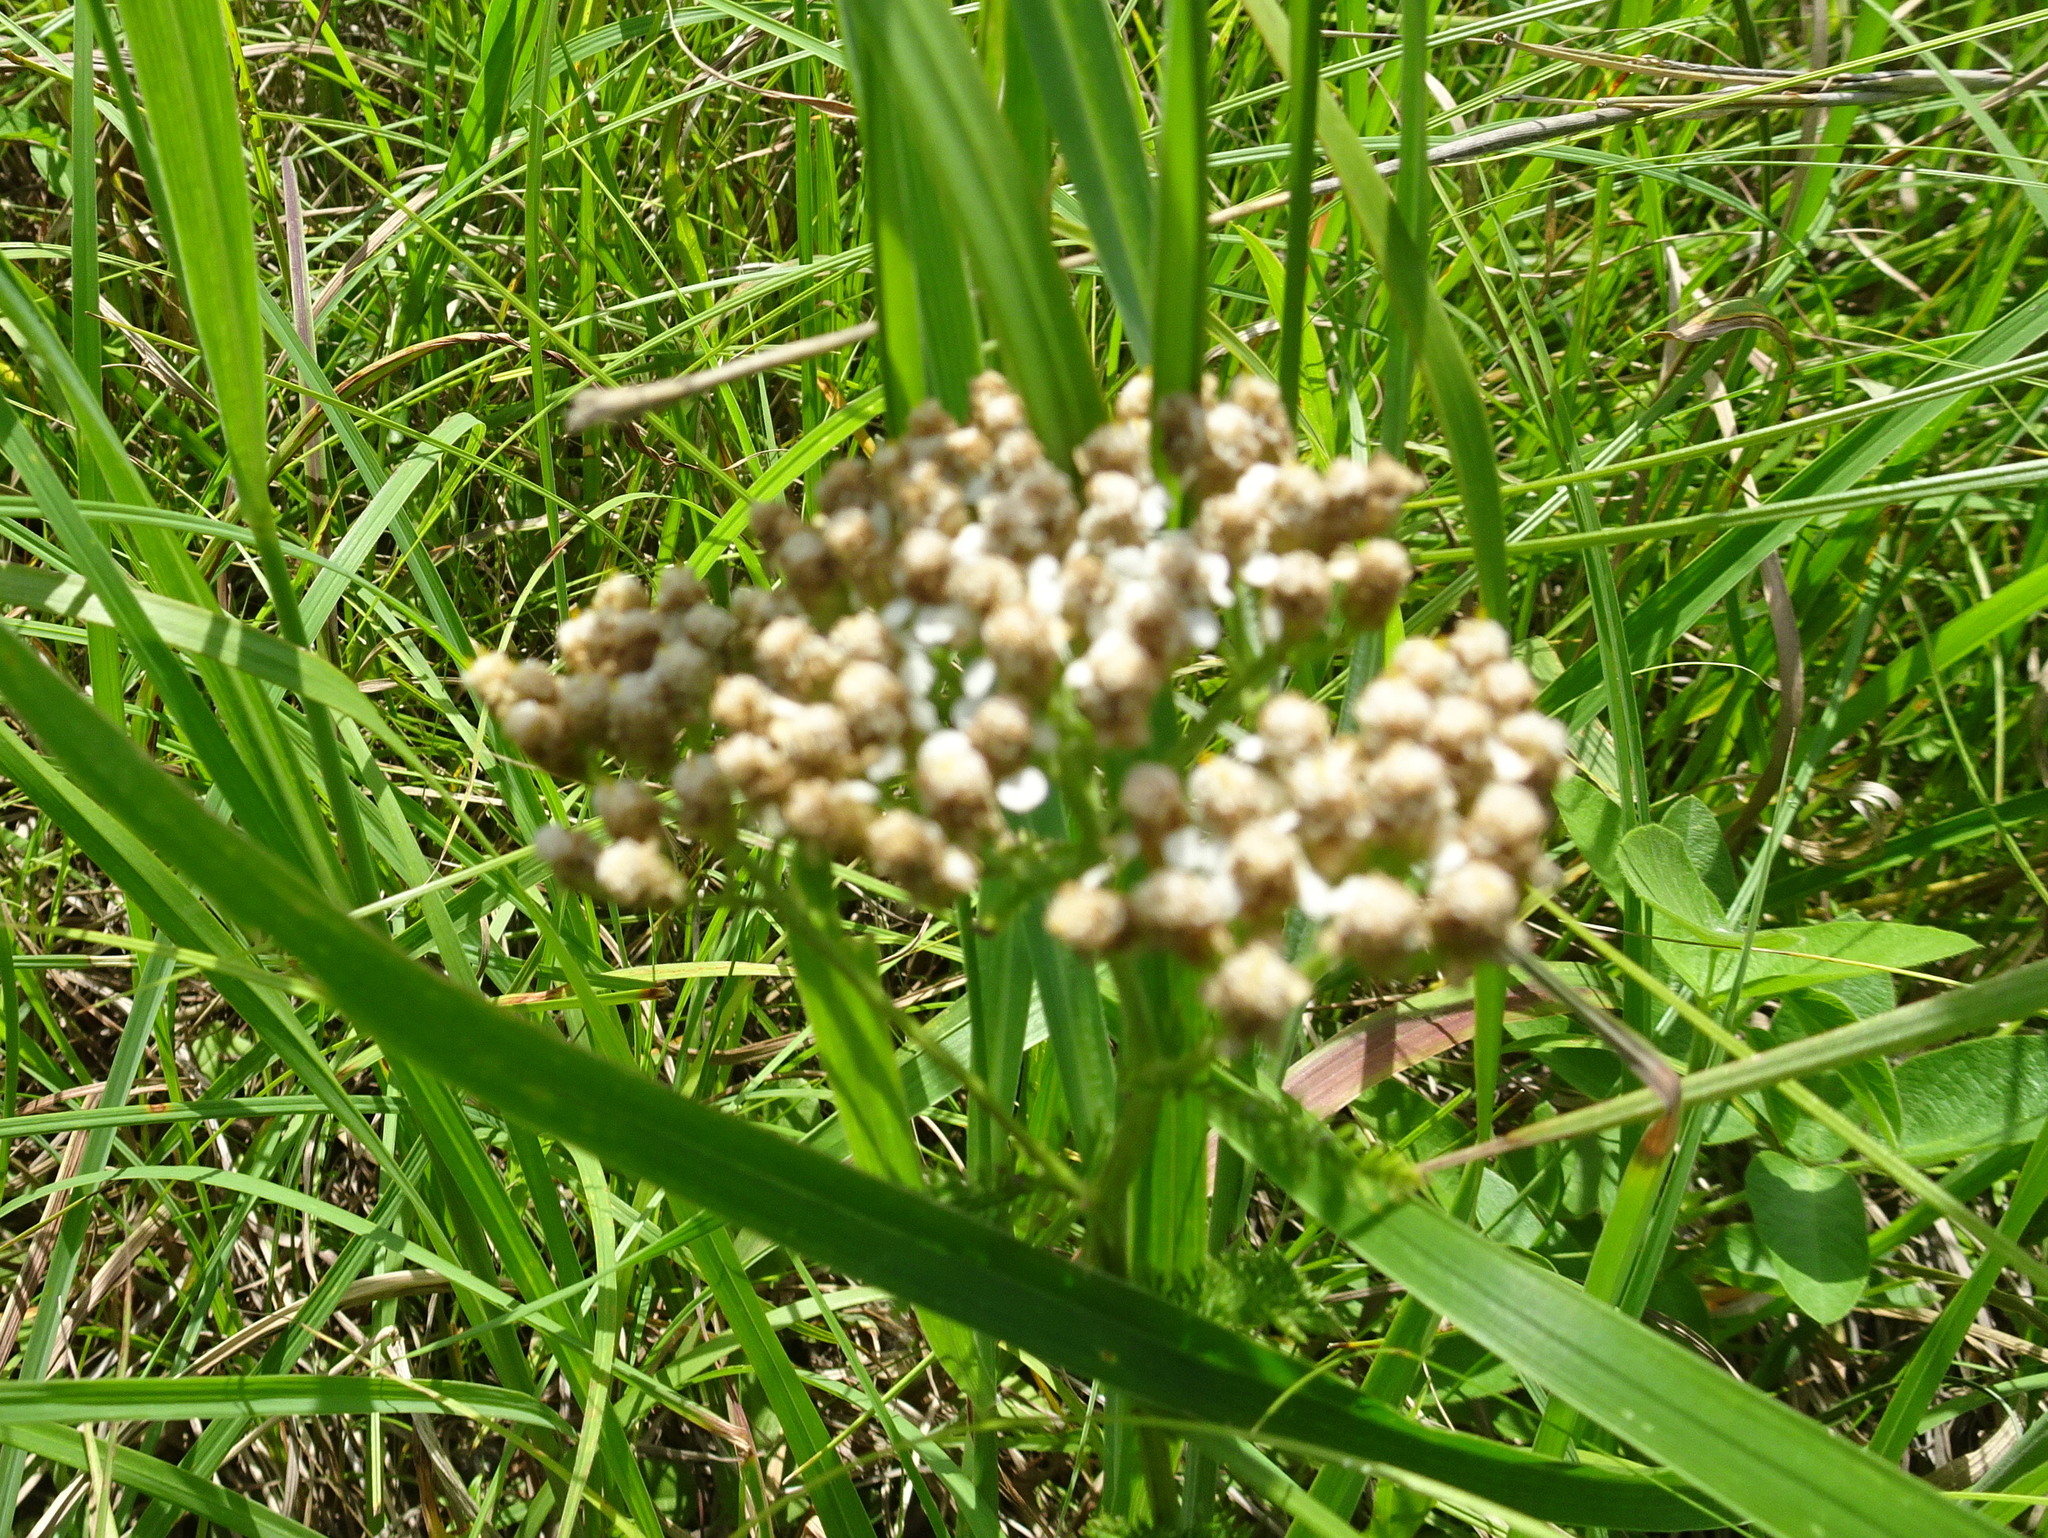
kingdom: Plantae
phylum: Tracheophyta
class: Magnoliopsida
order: Asterales
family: Asteraceae
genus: Achillea
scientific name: Achillea millefolium
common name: Yarrow
